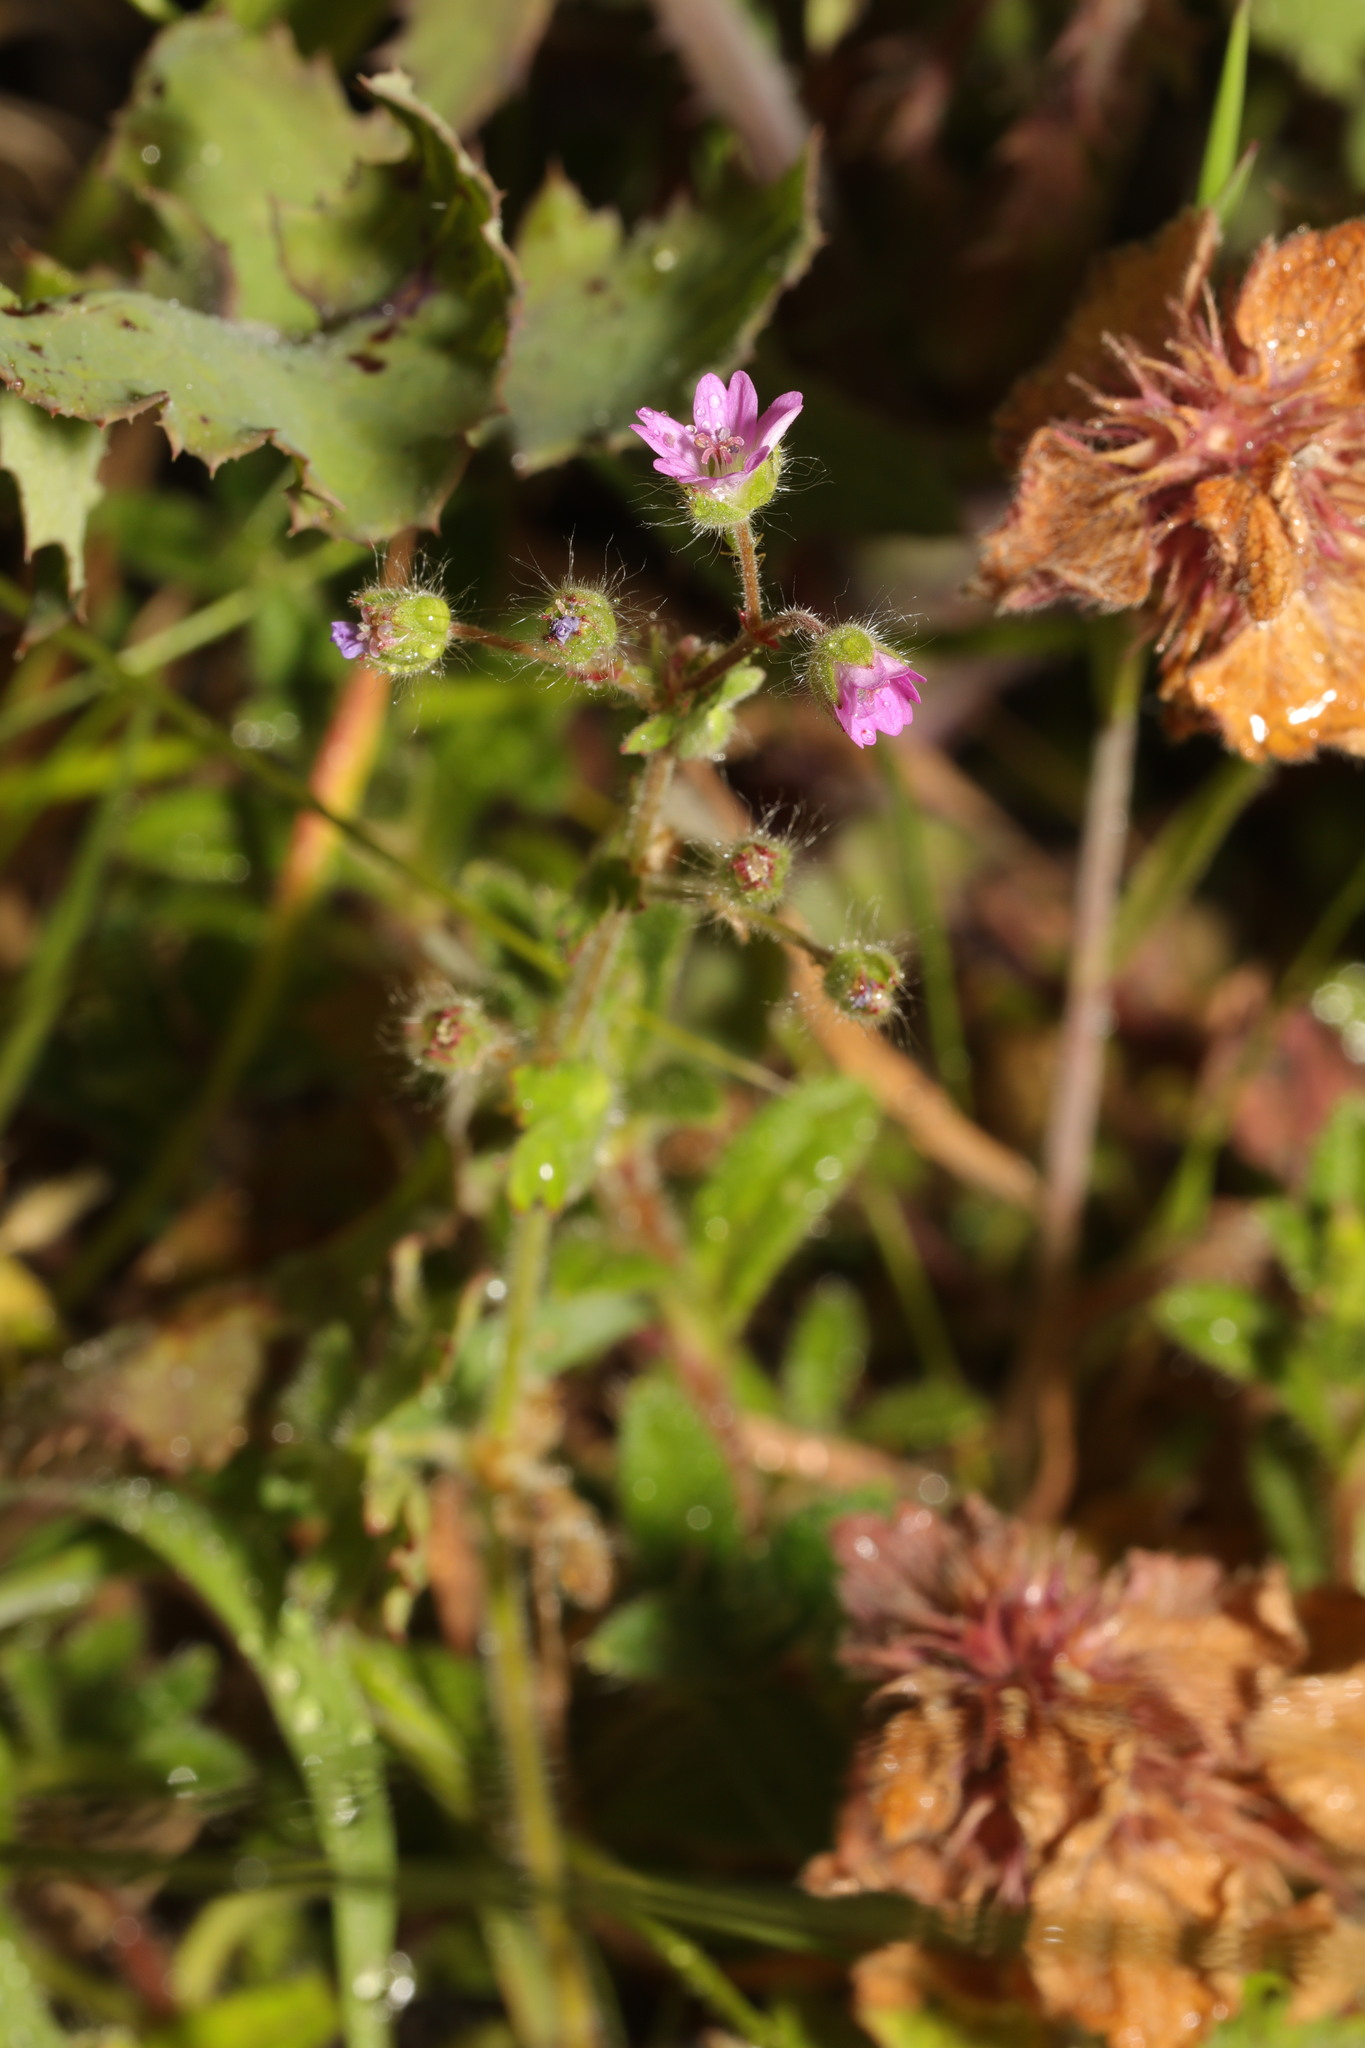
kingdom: Plantae
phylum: Tracheophyta
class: Magnoliopsida
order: Geraniales
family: Geraniaceae
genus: Geranium
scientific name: Geranium pusillum
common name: Small geranium
